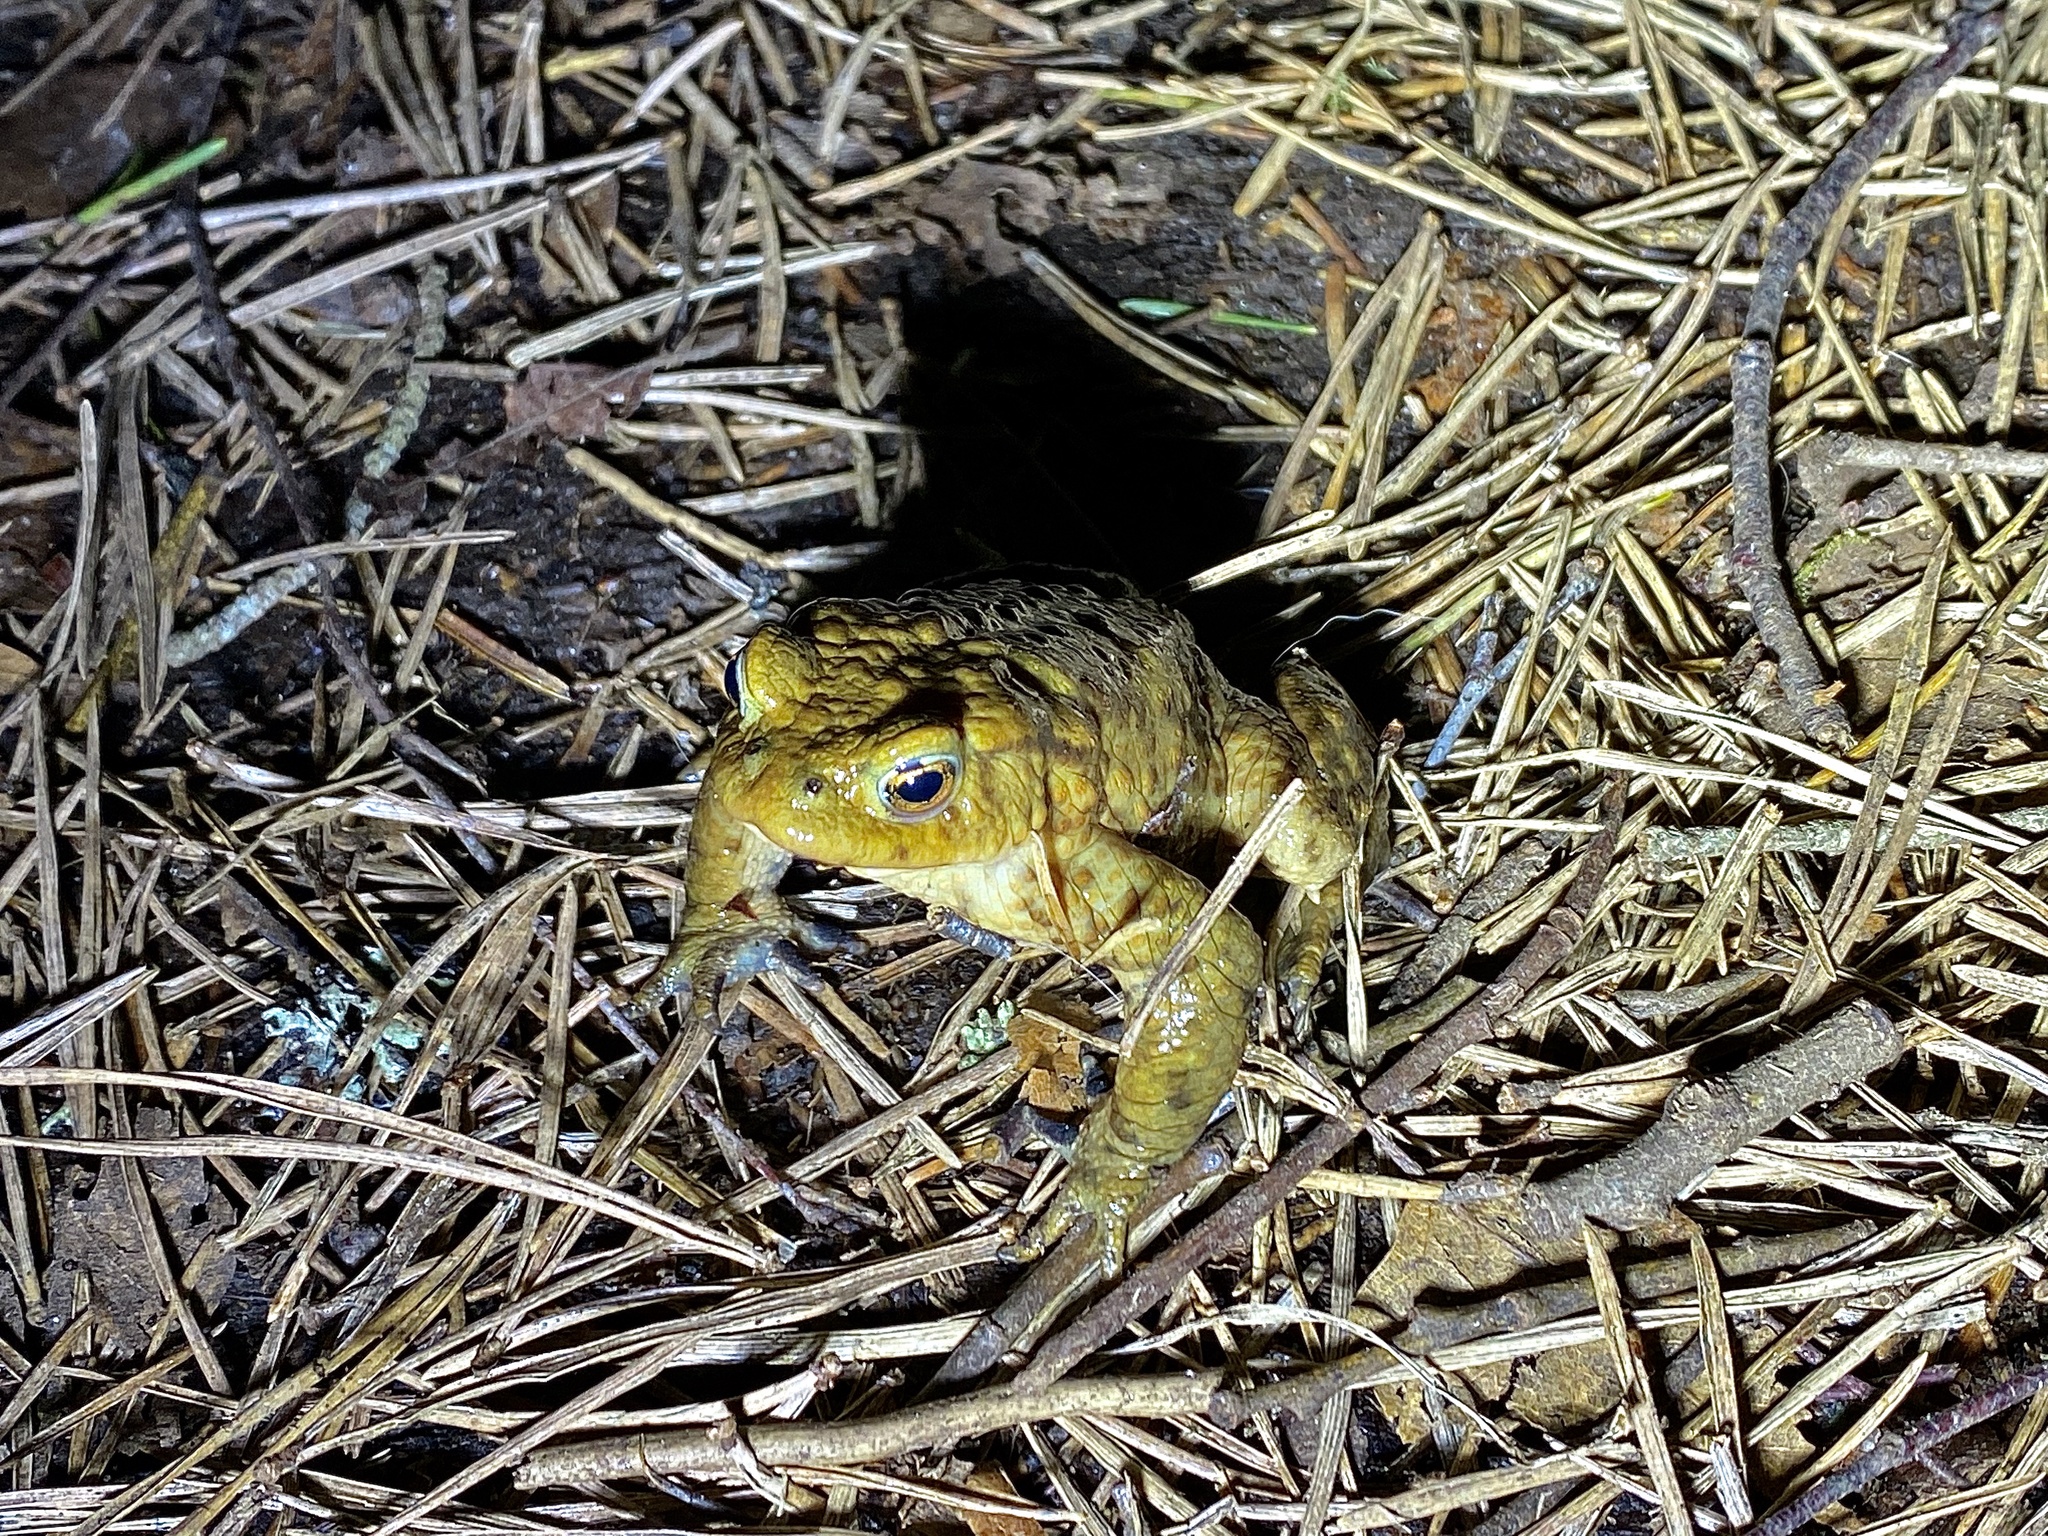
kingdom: Animalia
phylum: Chordata
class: Amphibia
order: Anura
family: Bufonidae
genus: Bufo
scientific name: Bufo bufo
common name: Common toad
